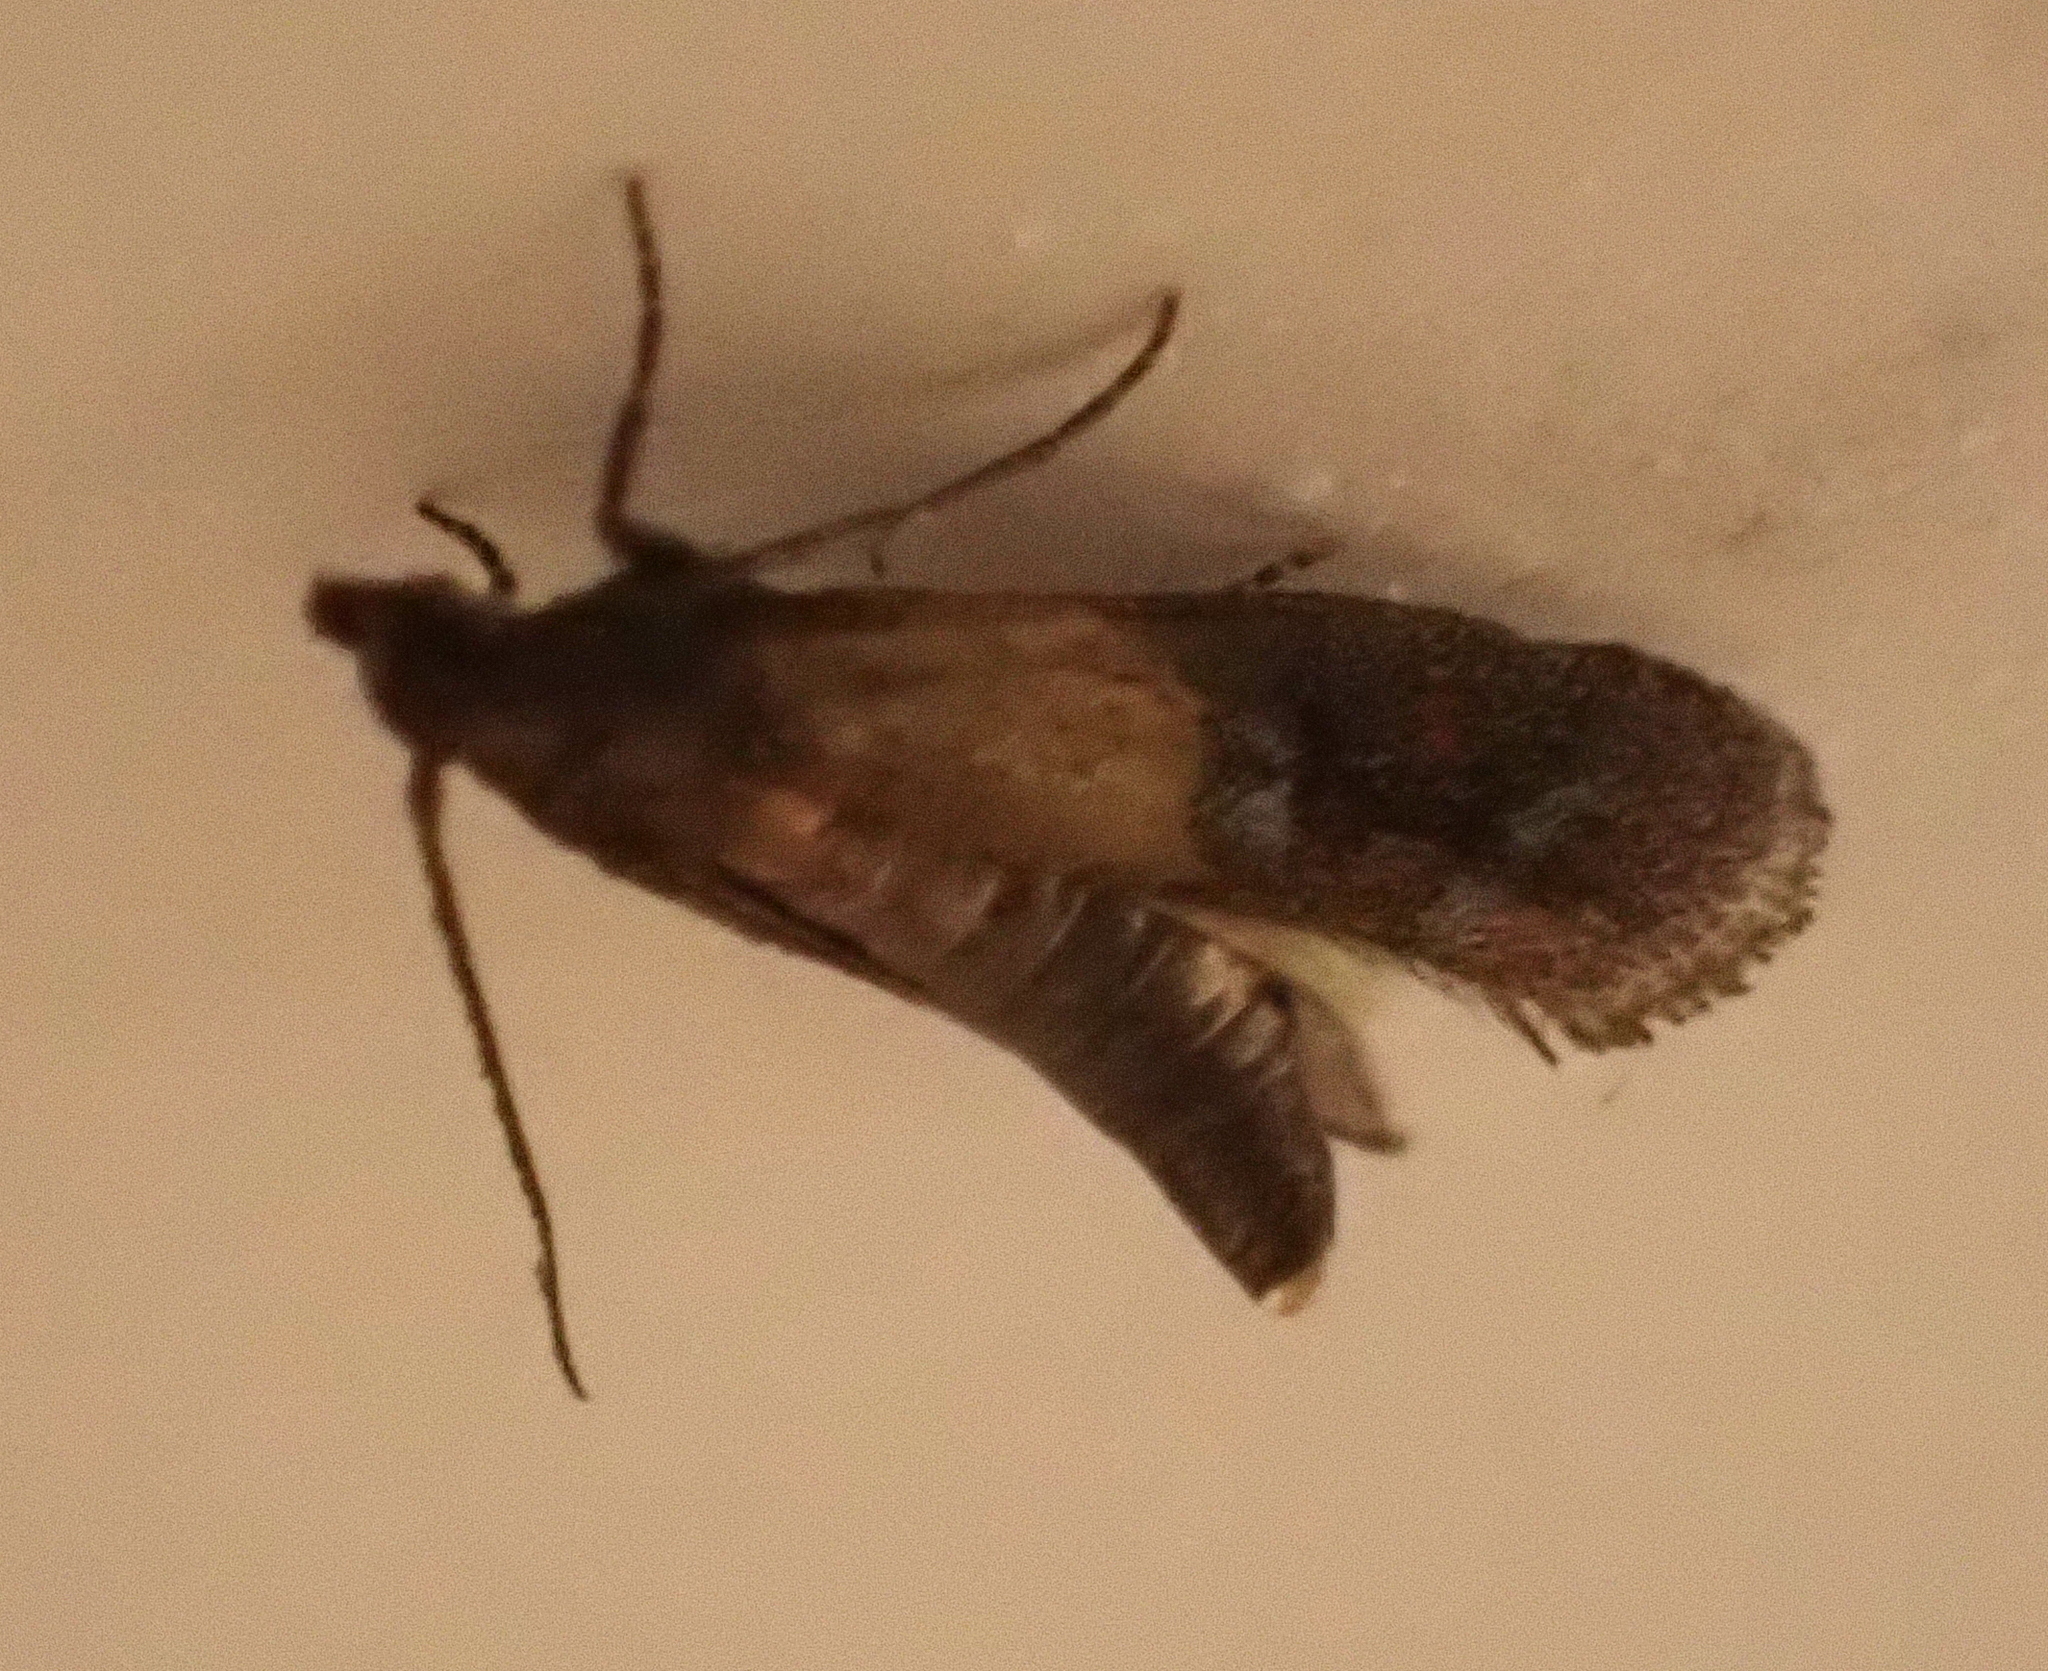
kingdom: Animalia
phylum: Arthropoda
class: Insecta
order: Lepidoptera
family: Pyralidae
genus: Plodia
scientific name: Plodia interpunctella
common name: Indian meal moth
